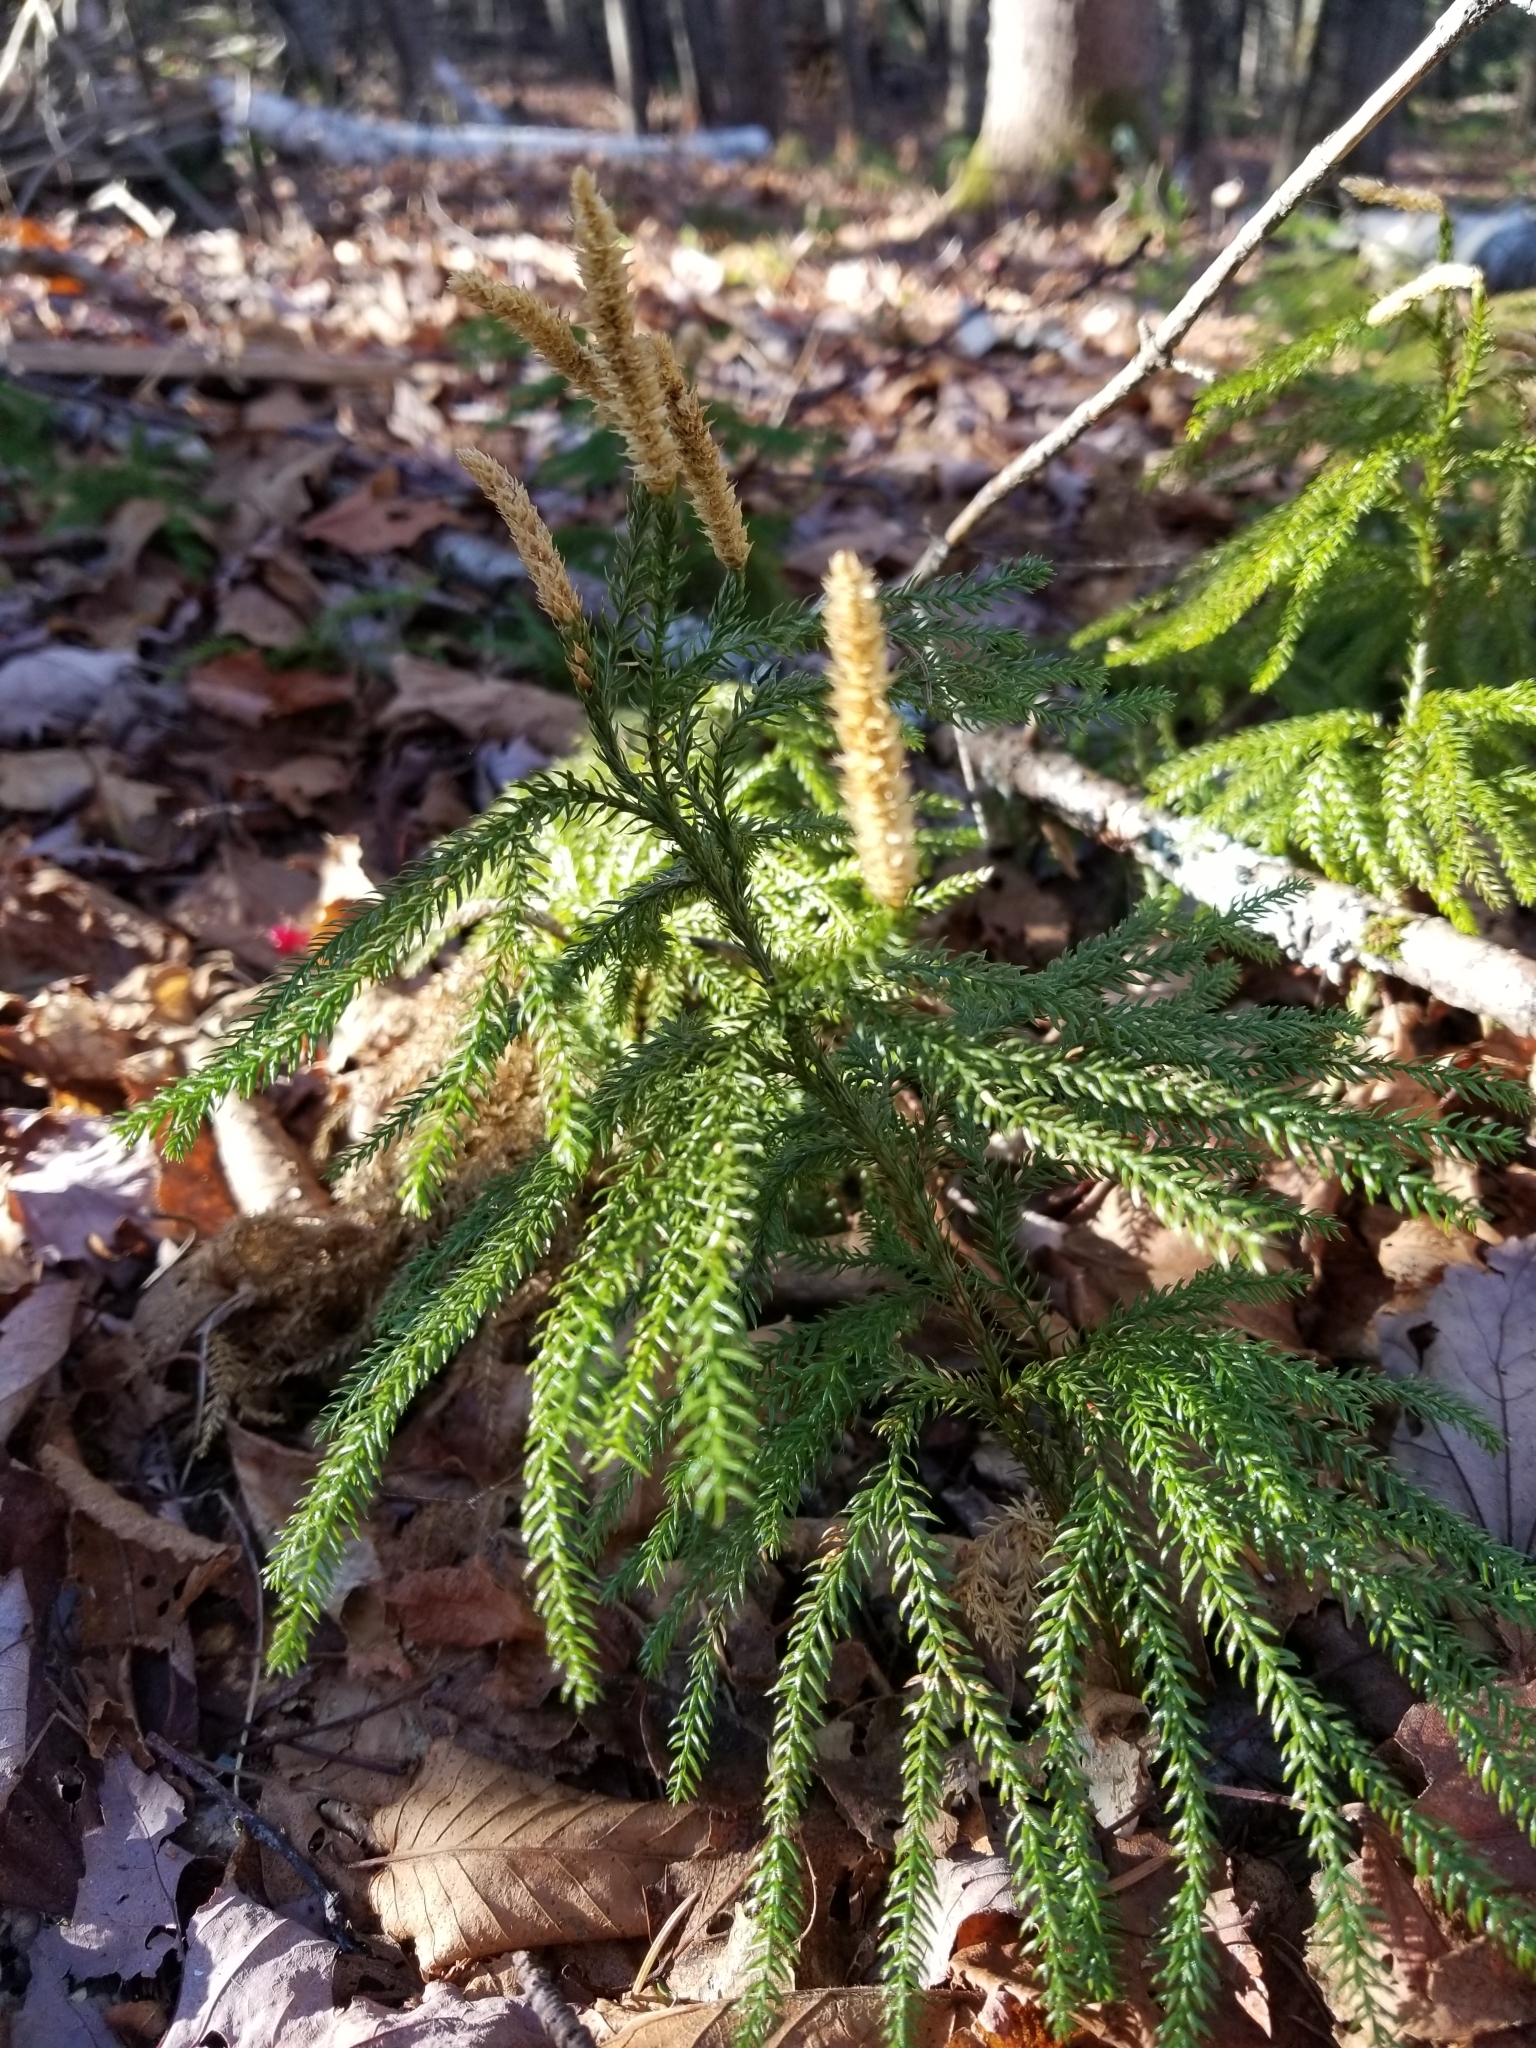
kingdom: Plantae
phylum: Tracheophyta
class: Lycopodiopsida
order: Lycopodiales
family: Lycopodiaceae
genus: Dendrolycopodium
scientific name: Dendrolycopodium dendroideum
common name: Northern tree-clubmoss
